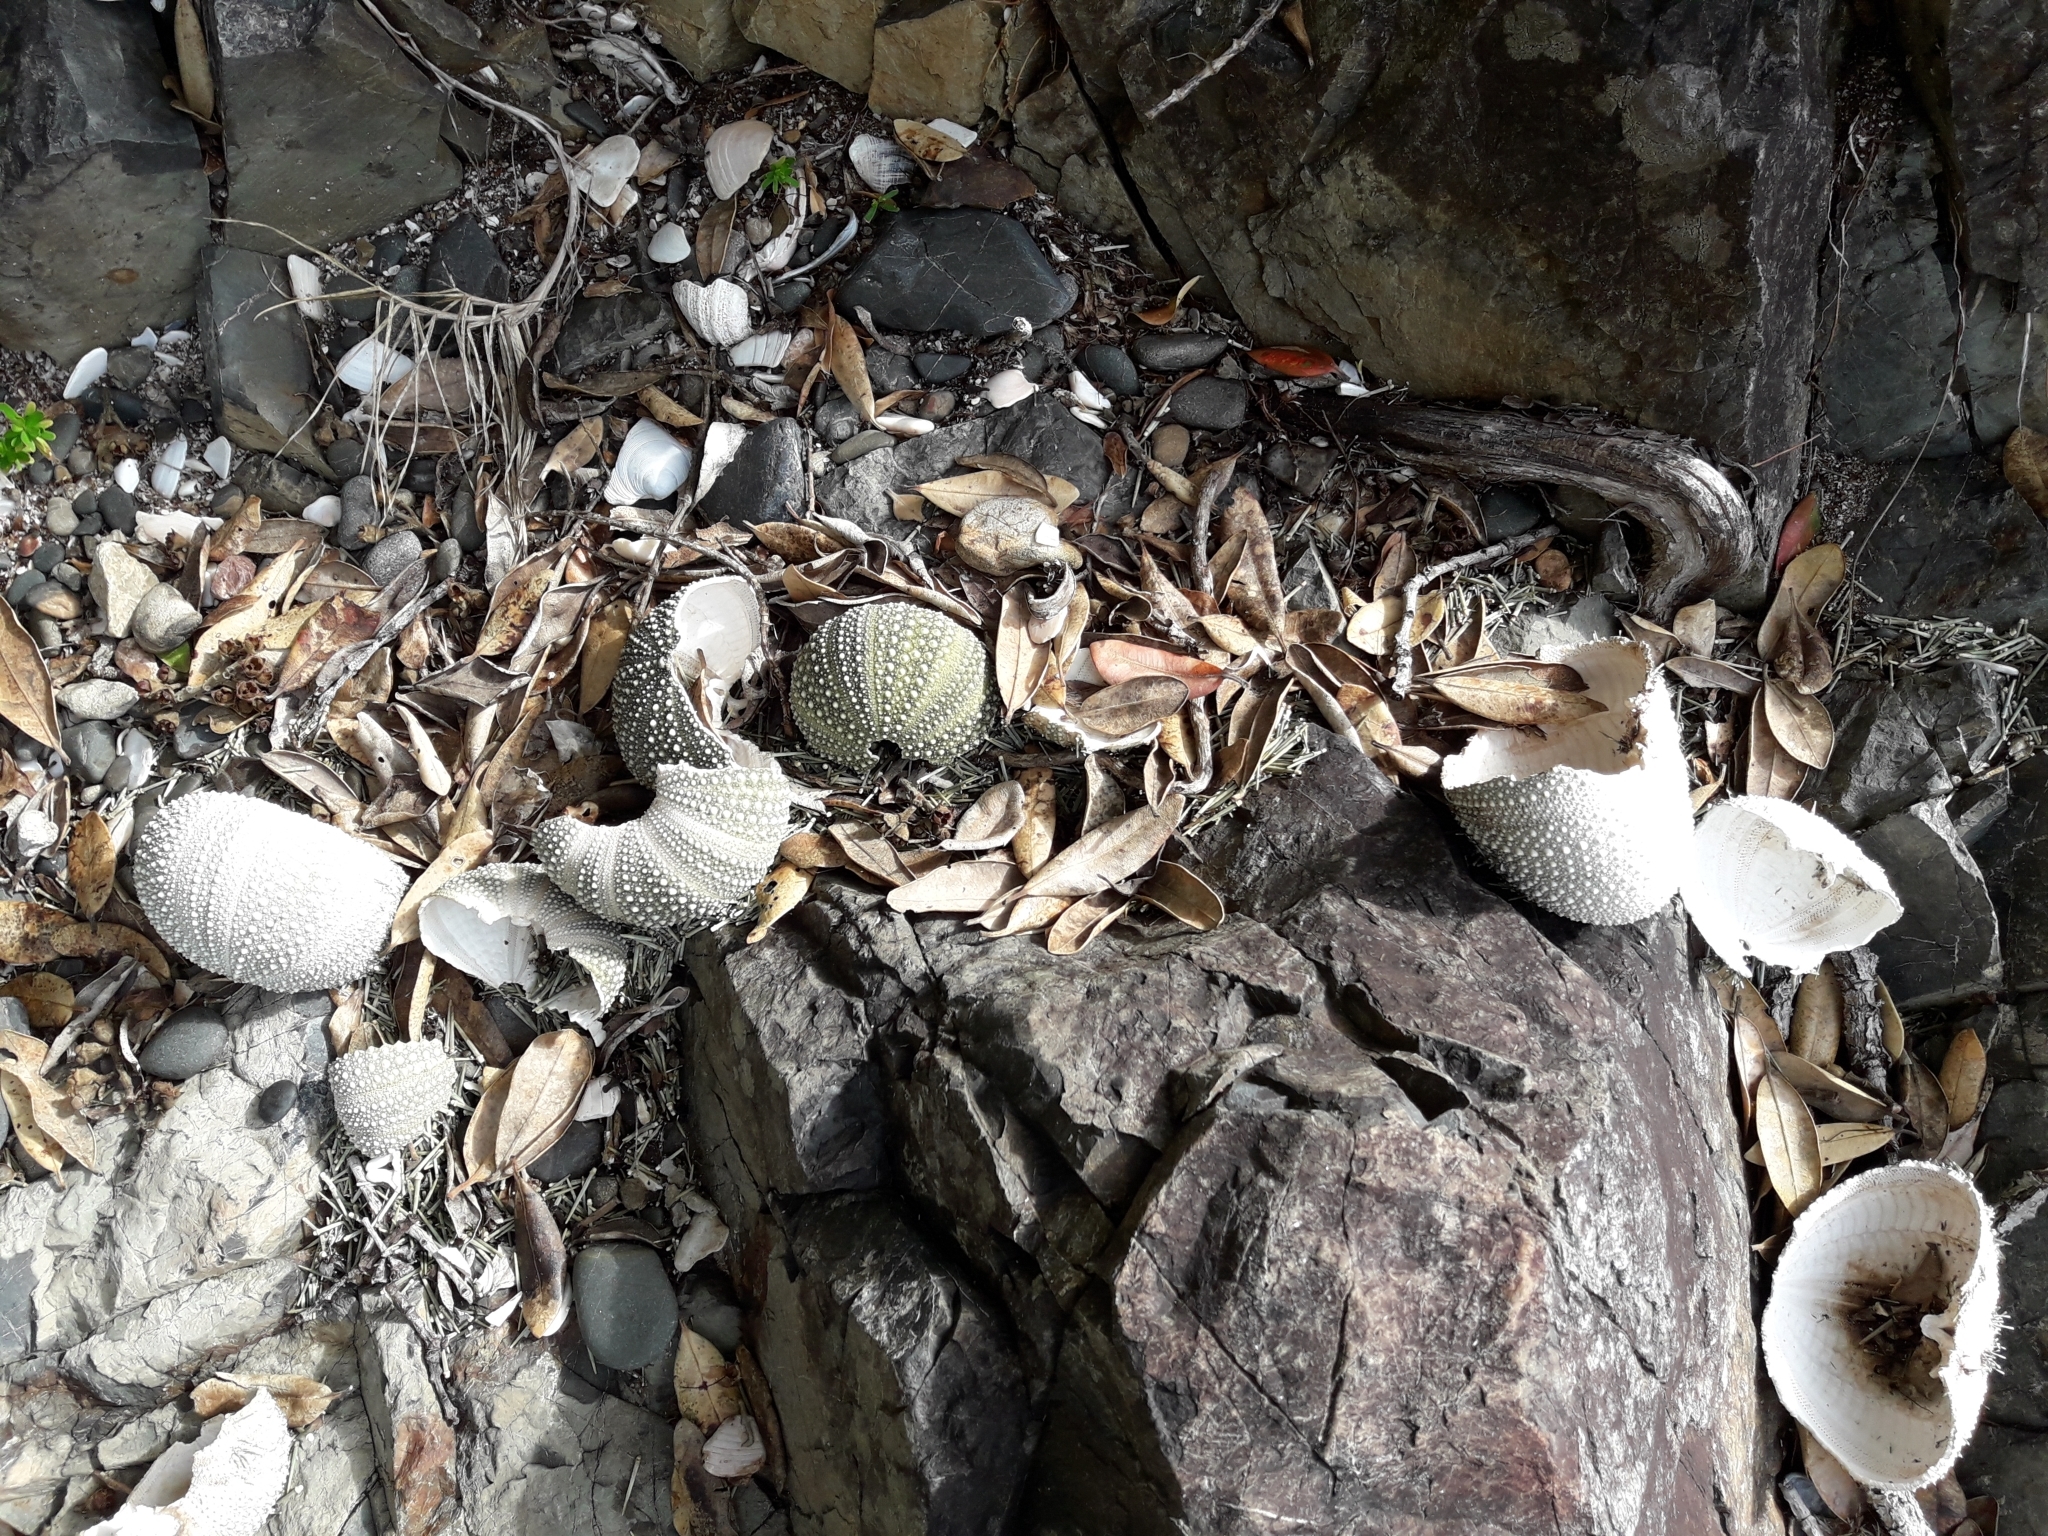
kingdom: Animalia
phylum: Echinodermata
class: Echinoidea
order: Camarodonta
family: Echinometridae
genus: Evechinus
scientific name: Evechinus chloroticus
